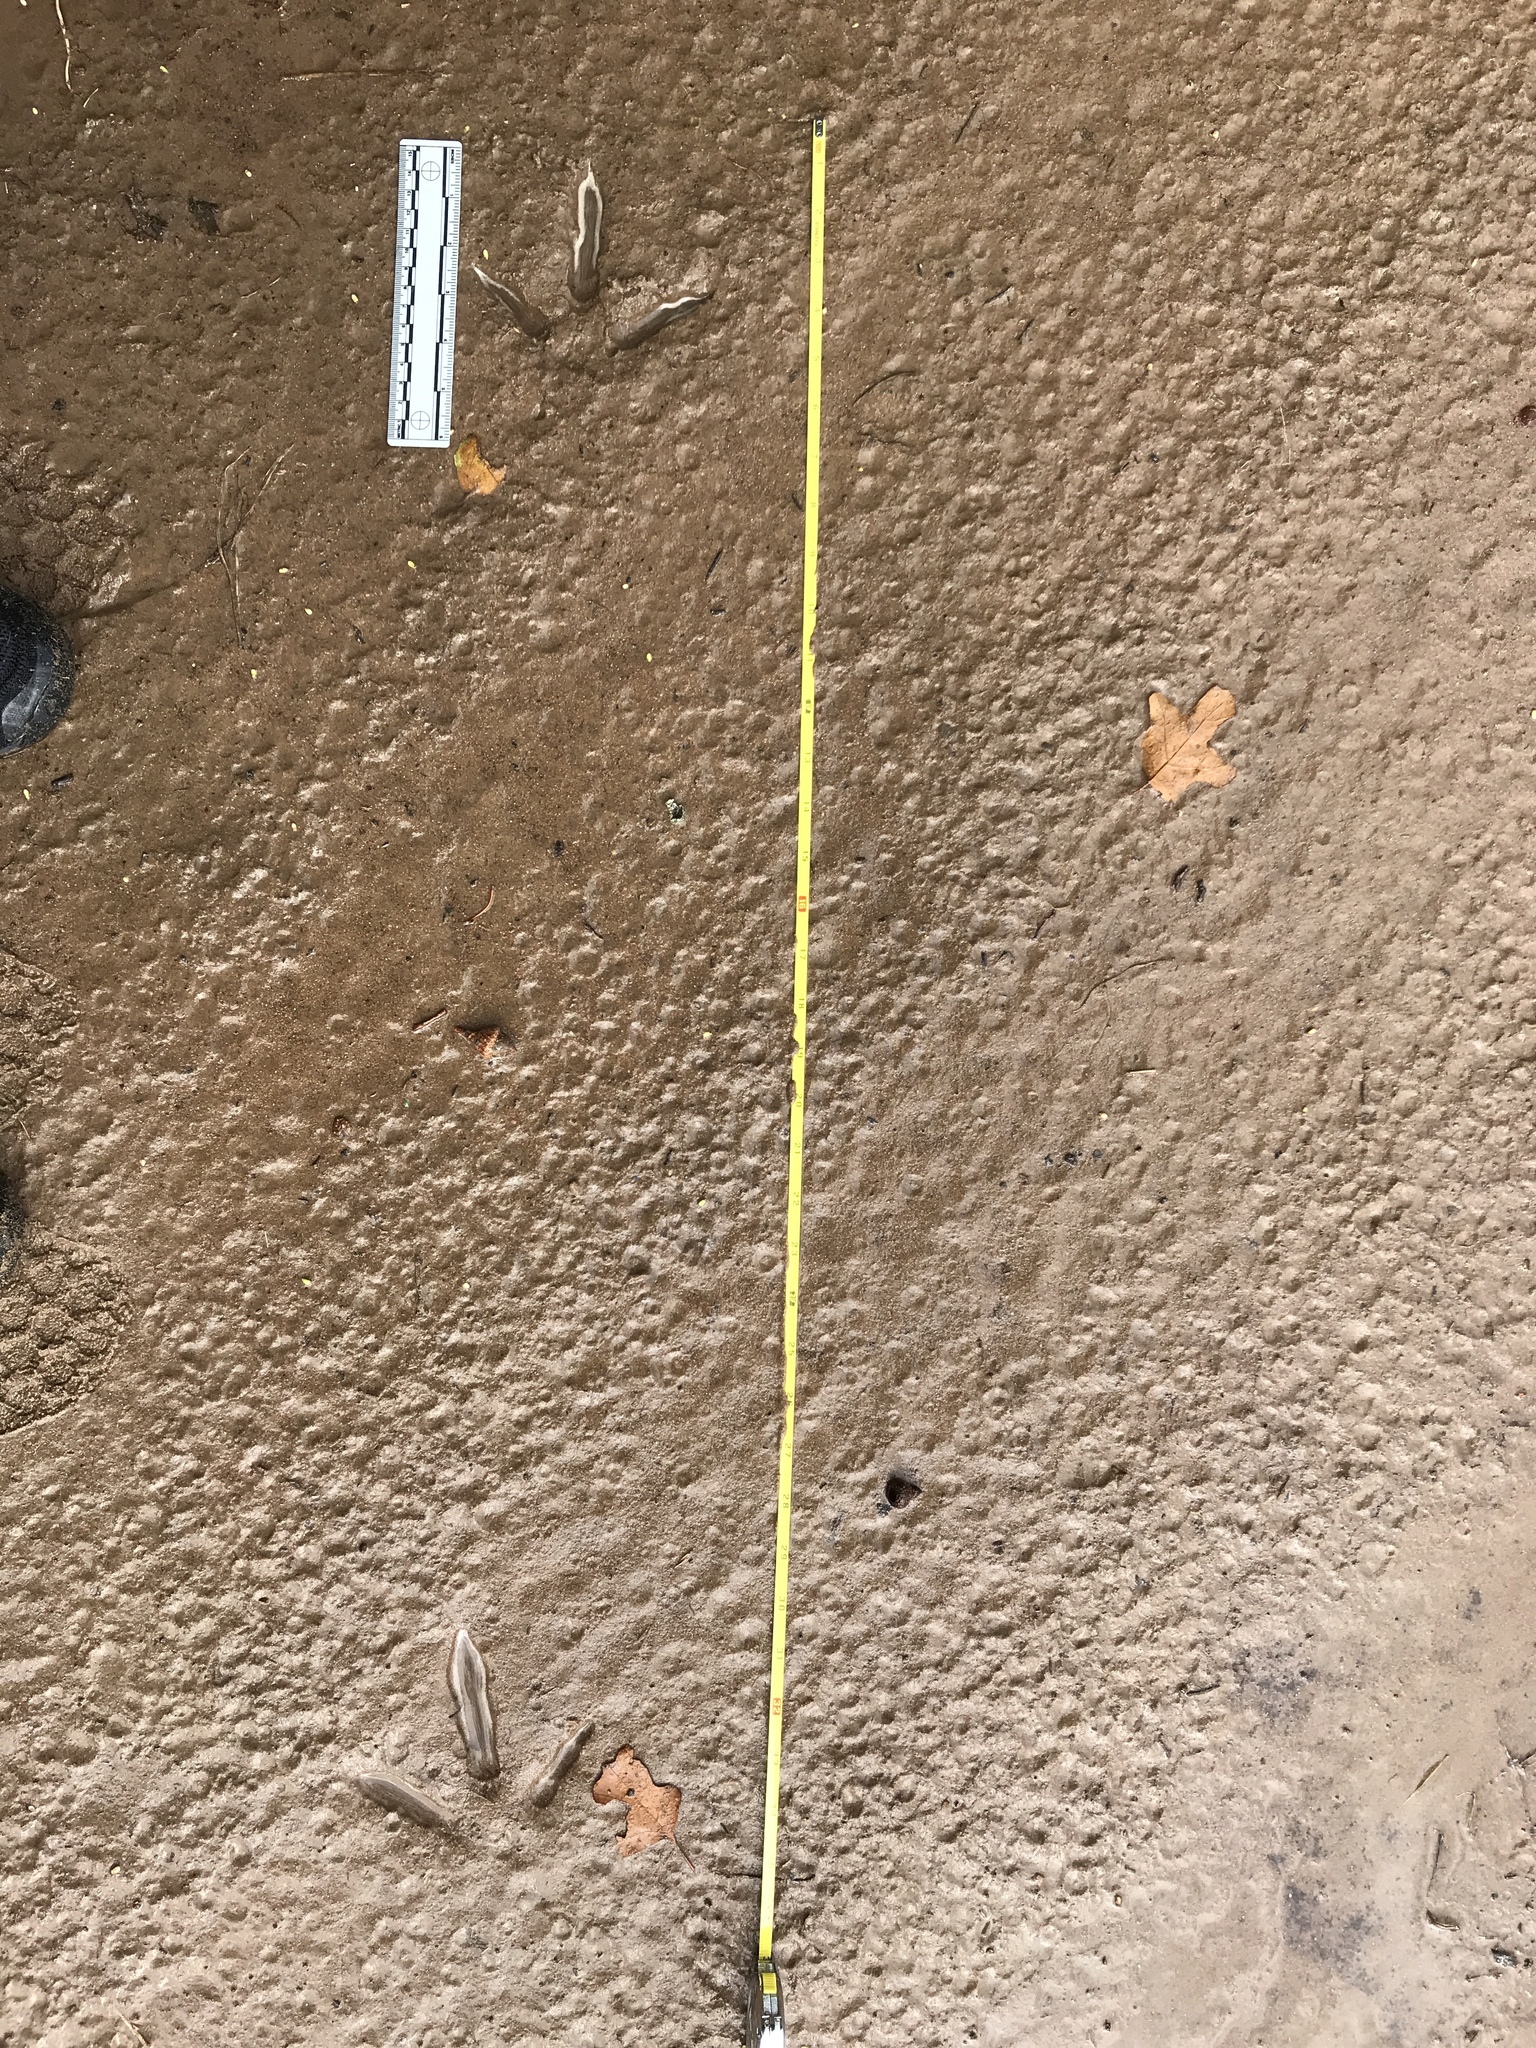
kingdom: Animalia
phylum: Chordata
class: Aves
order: Galliformes
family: Phasianidae
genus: Meleagris
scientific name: Meleagris gallopavo
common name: Wild turkey
